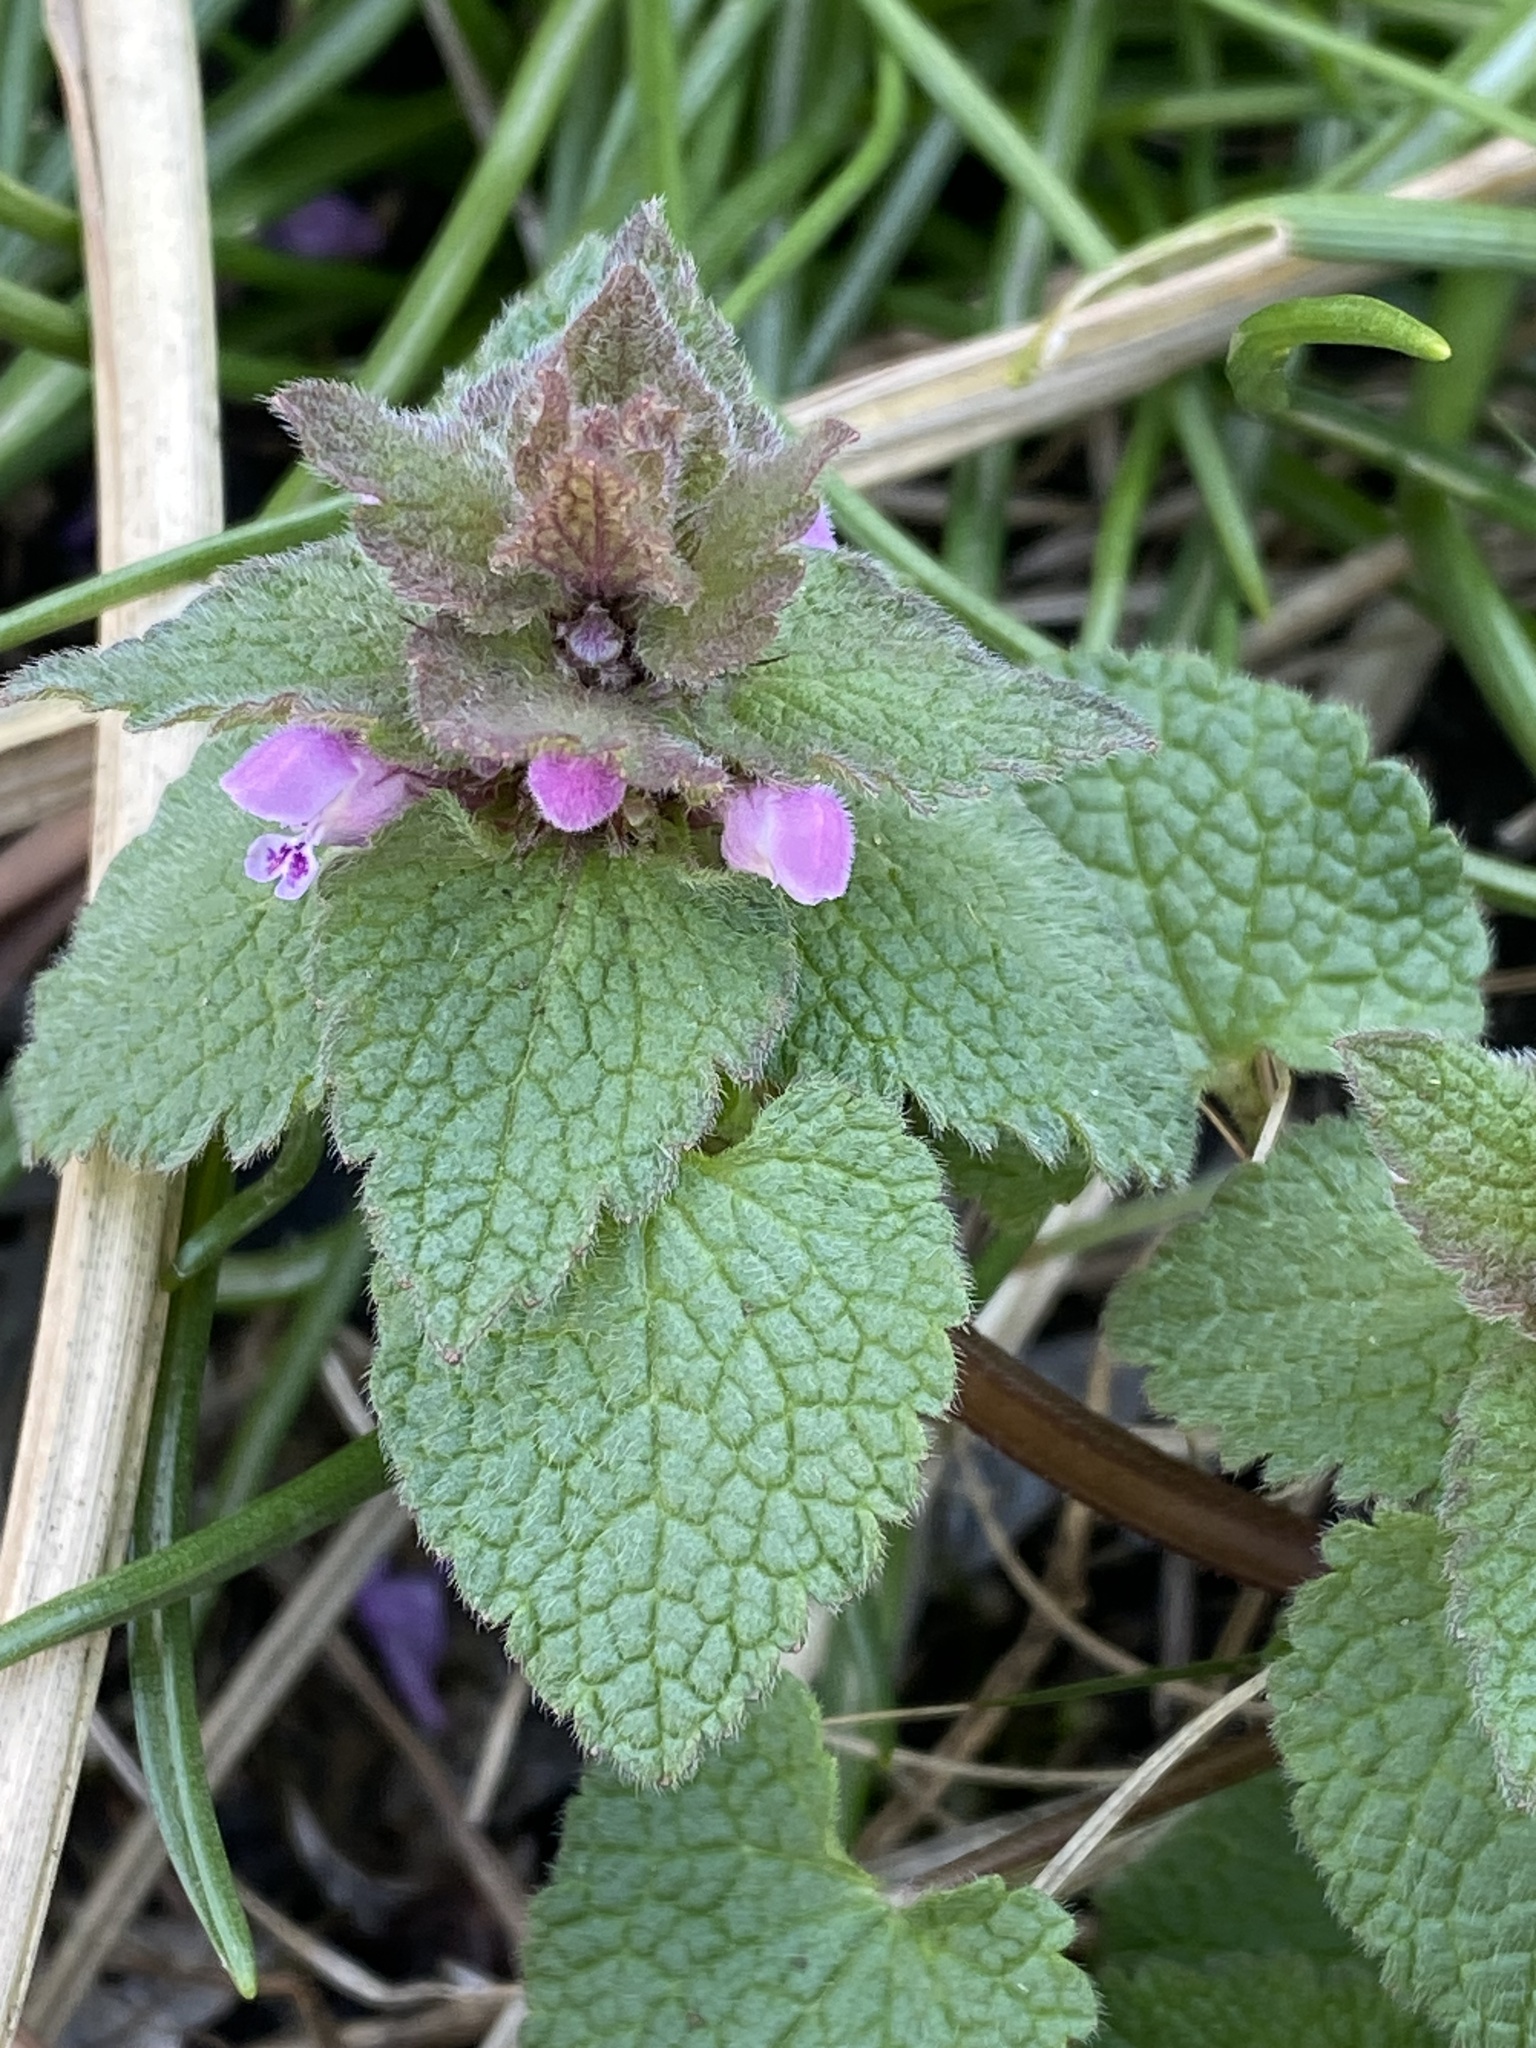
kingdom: Plantae
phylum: Tracheophyta
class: Magnoliopsida
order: Lamiales
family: Lamiaceae
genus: Lamium
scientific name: Lamium purpureum
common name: Red dead-nettle
